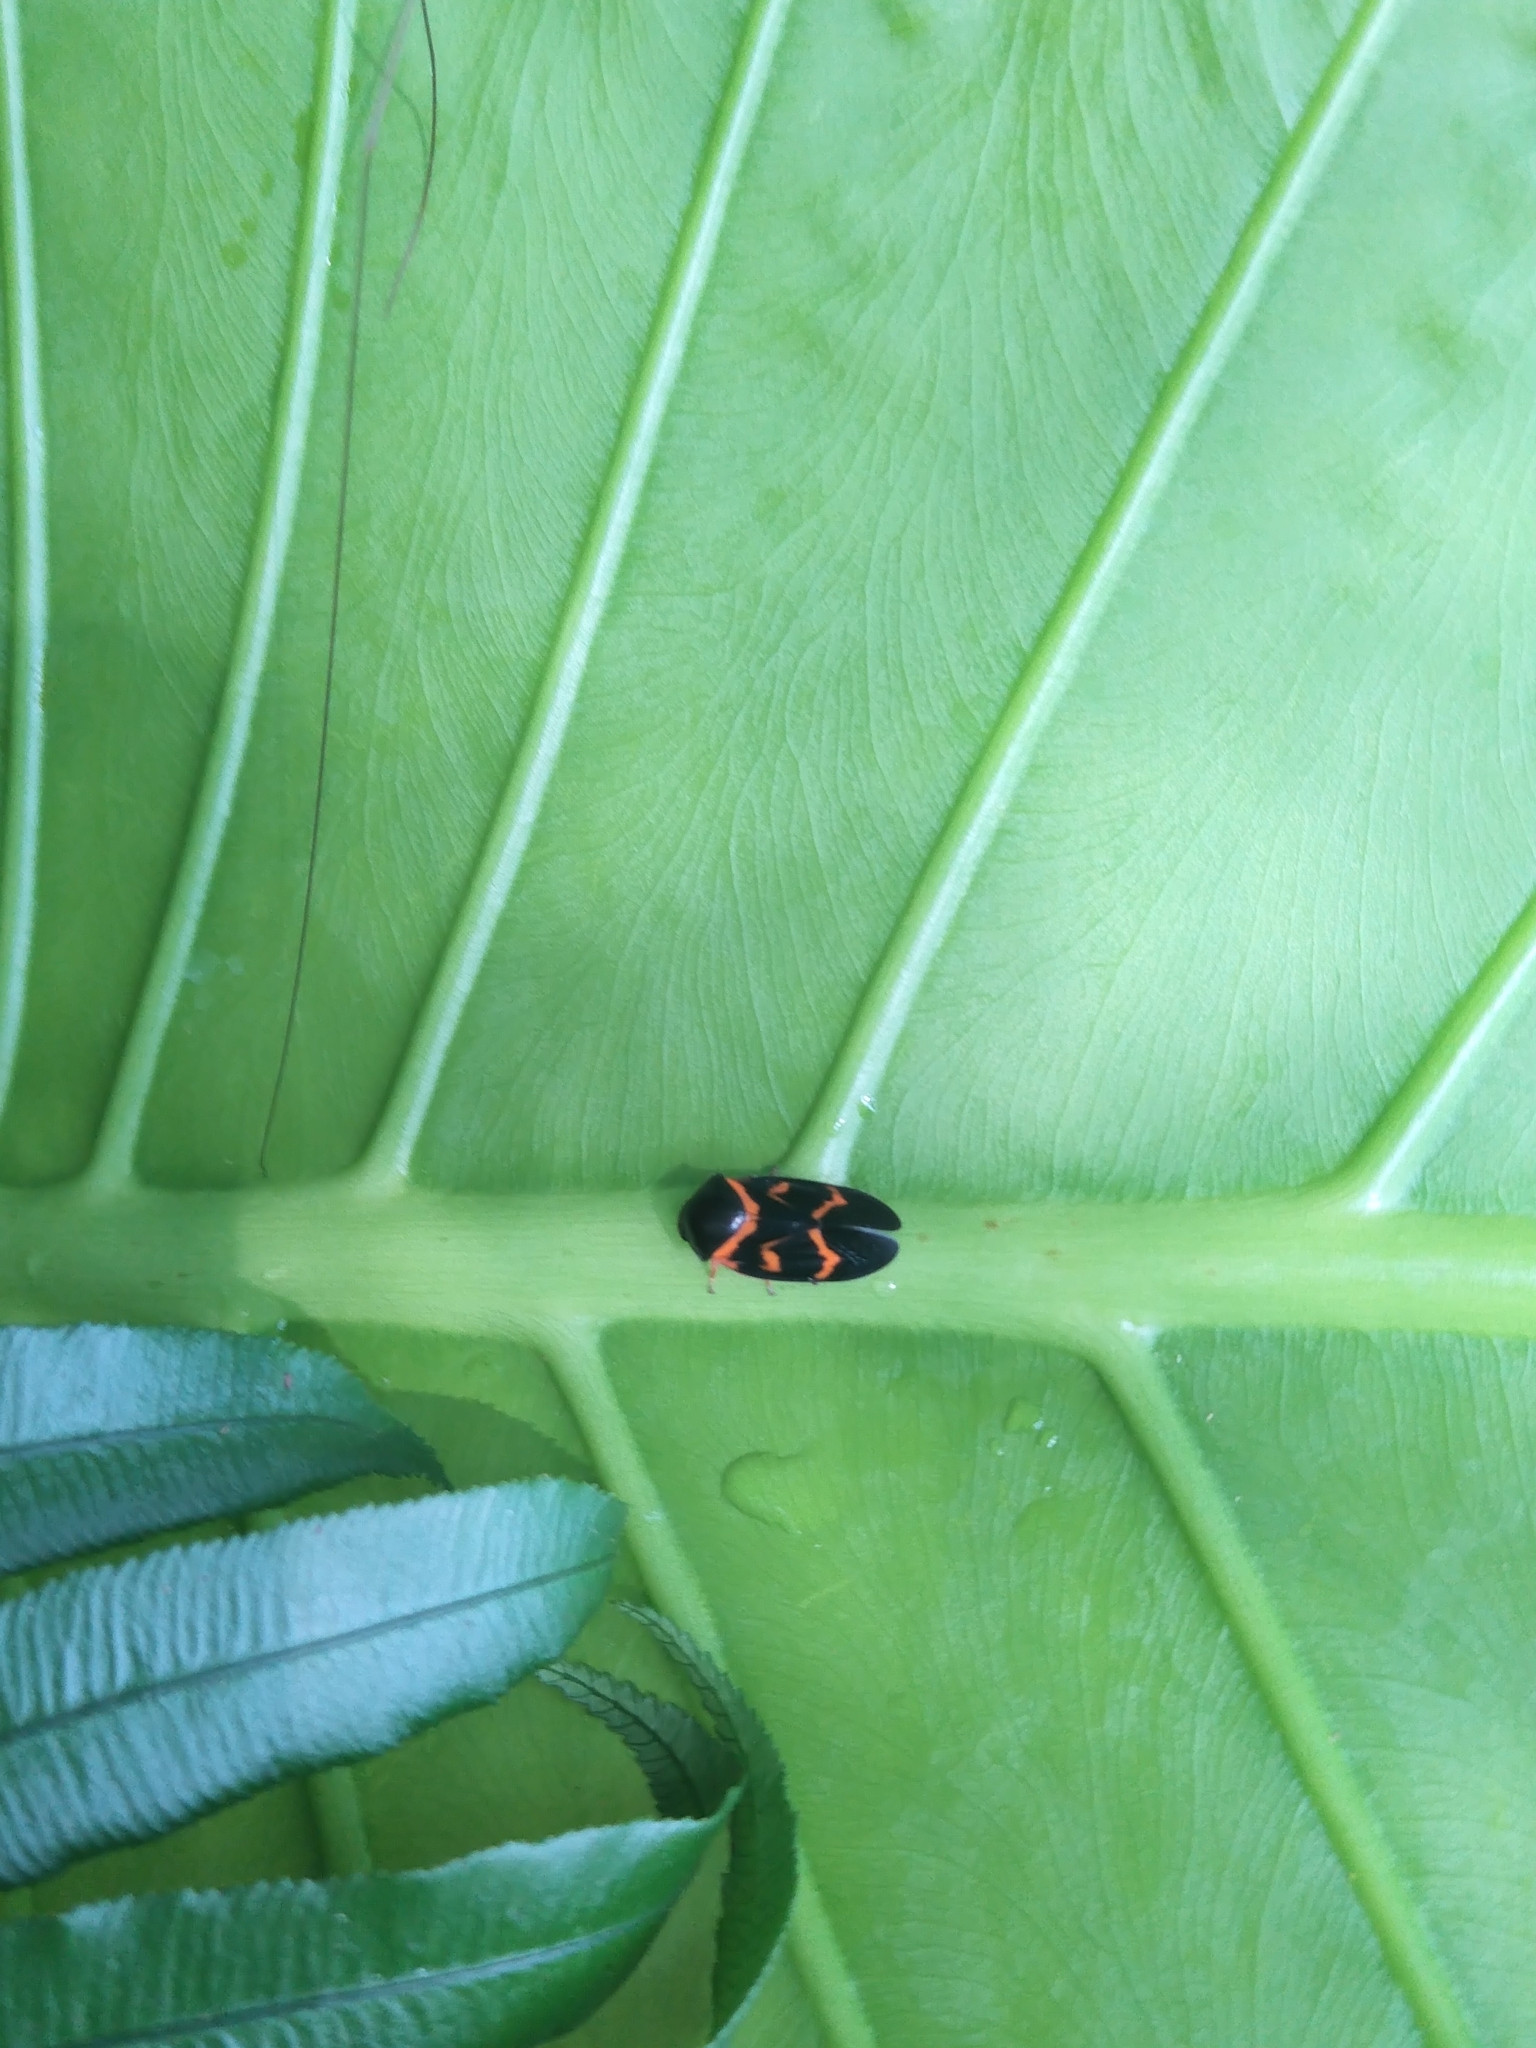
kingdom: Animalia
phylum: Arthropoda
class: Insecta
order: Hemiptera
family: Cercopidae
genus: Okiscarta
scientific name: Okiscarta uchidae
